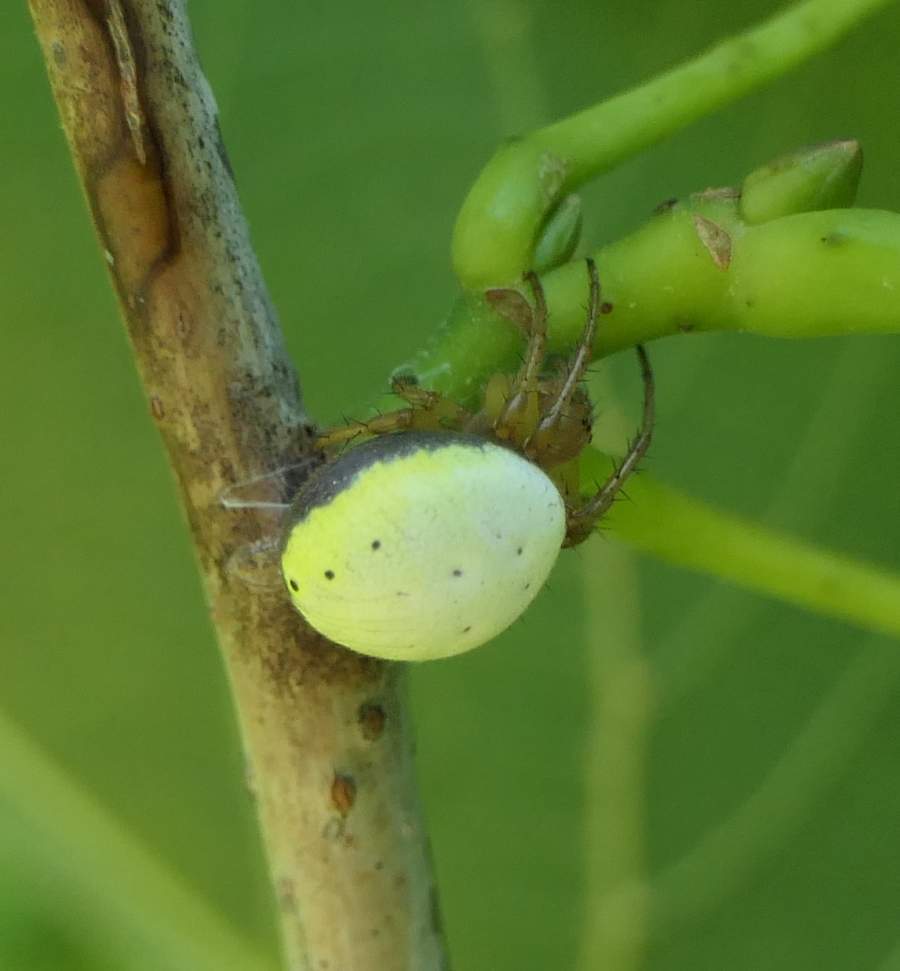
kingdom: Animalia
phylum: Arthropoda
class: Arachnida
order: Araneae
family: Araneidae
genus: Araniella
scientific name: Araniella displicata
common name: Sixspotted orb weaver
